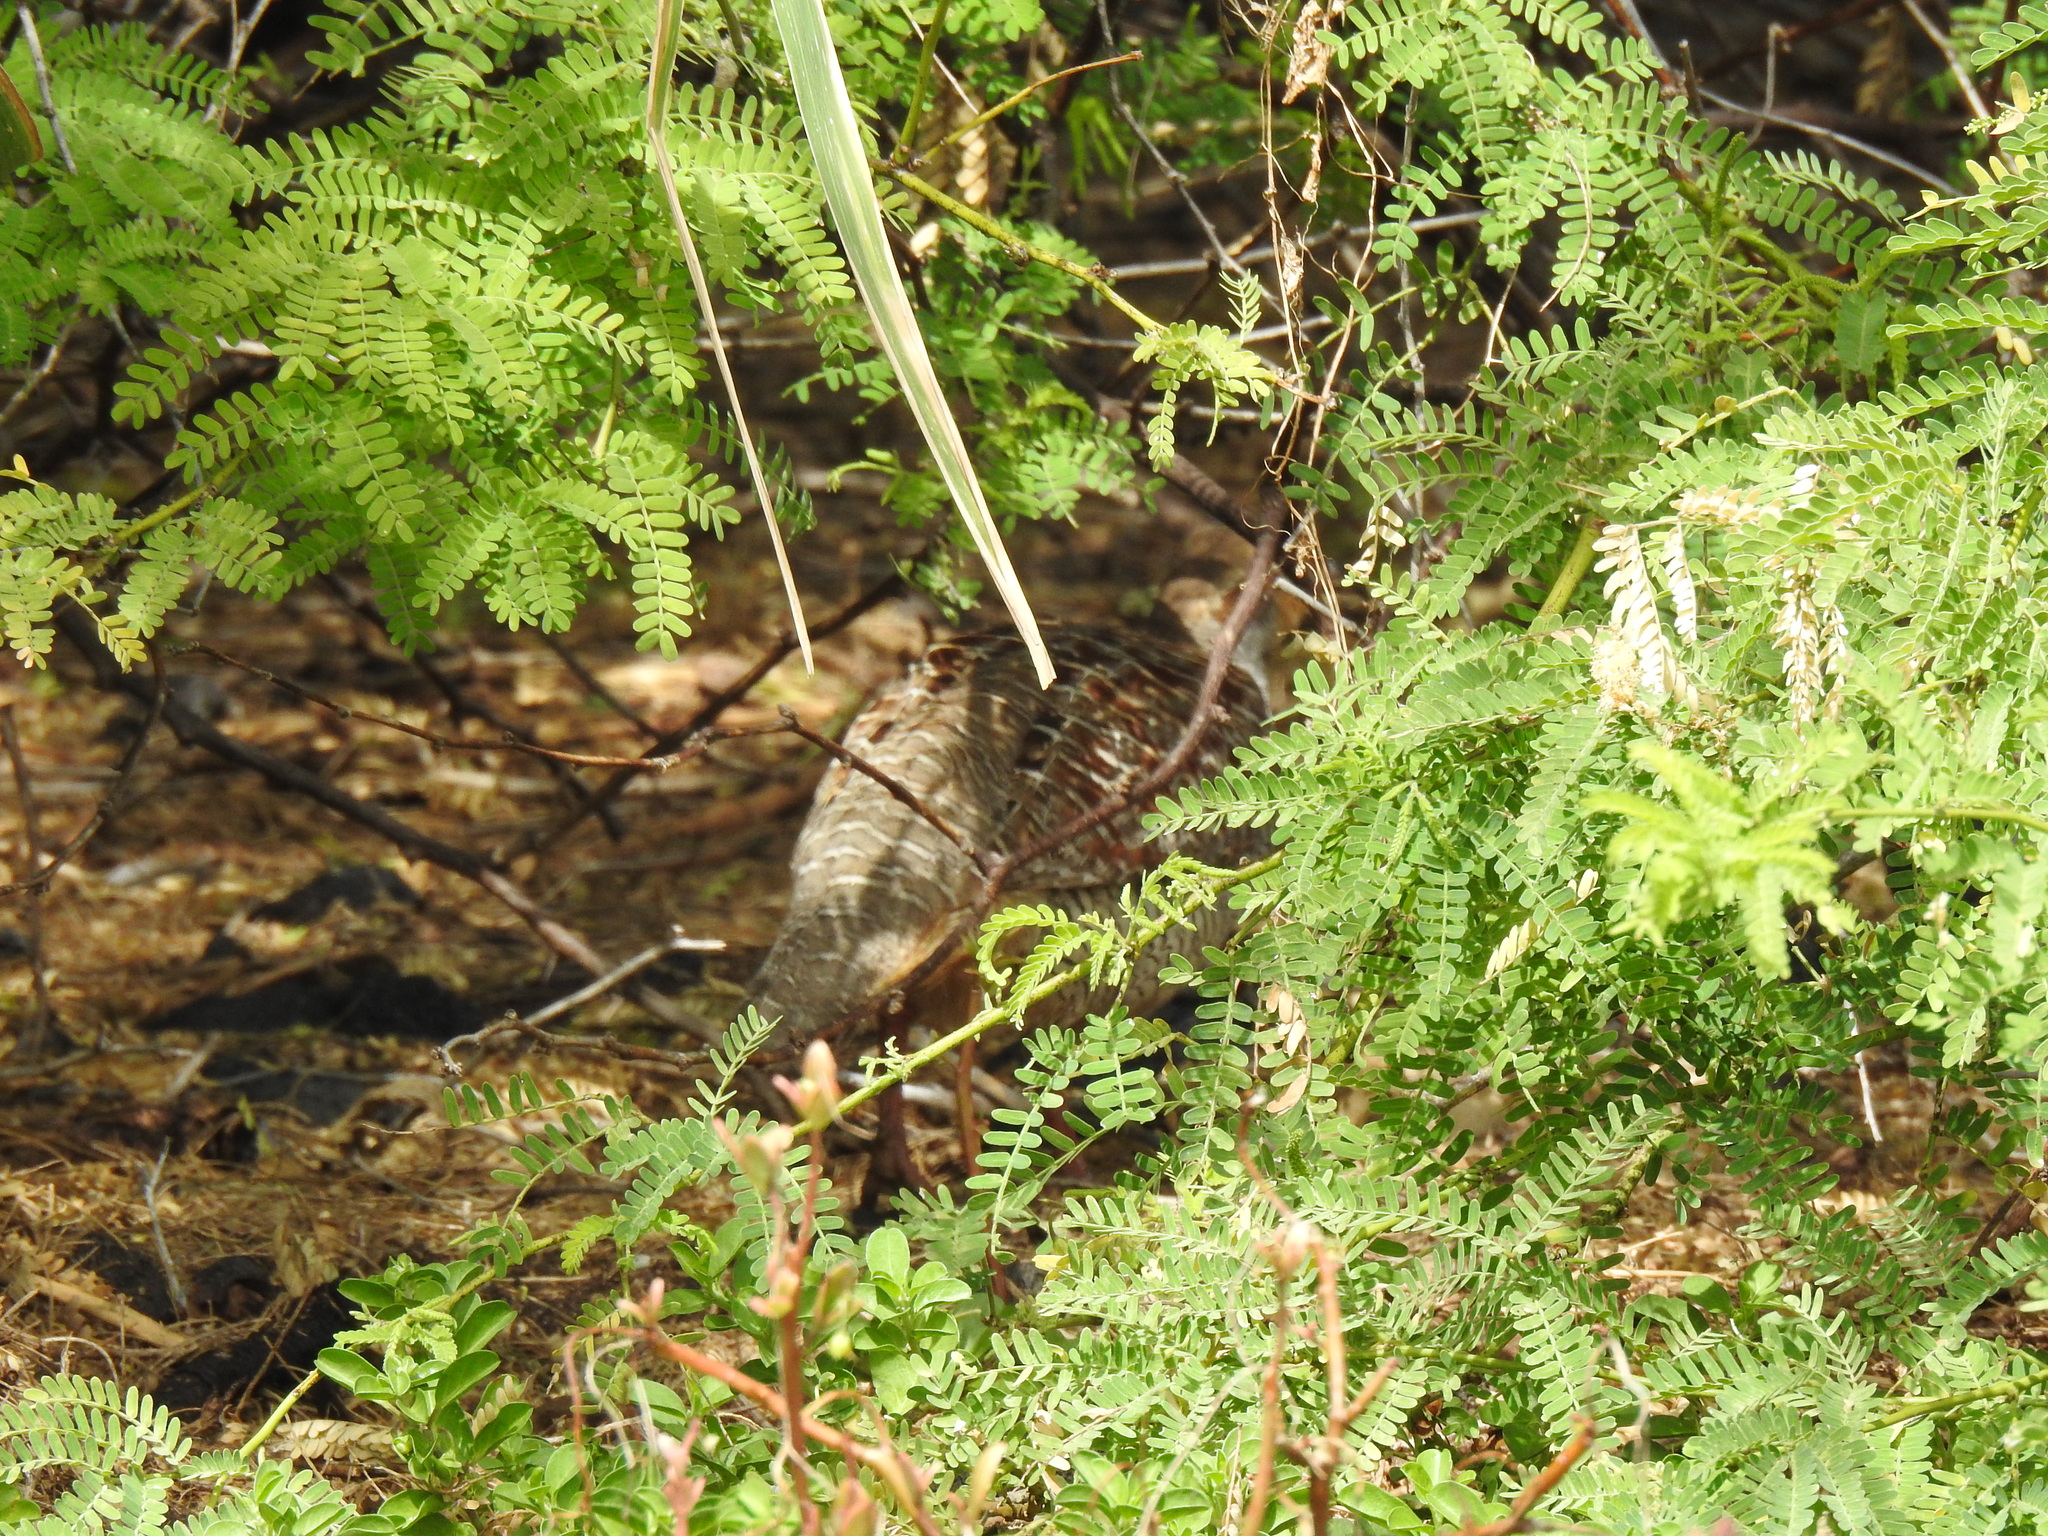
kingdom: Animalia
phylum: Chordata
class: Aves
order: Galliformes
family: Phasianidae
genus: Ortygornis
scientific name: Ortygornis pondicerianus
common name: Grey francolin
